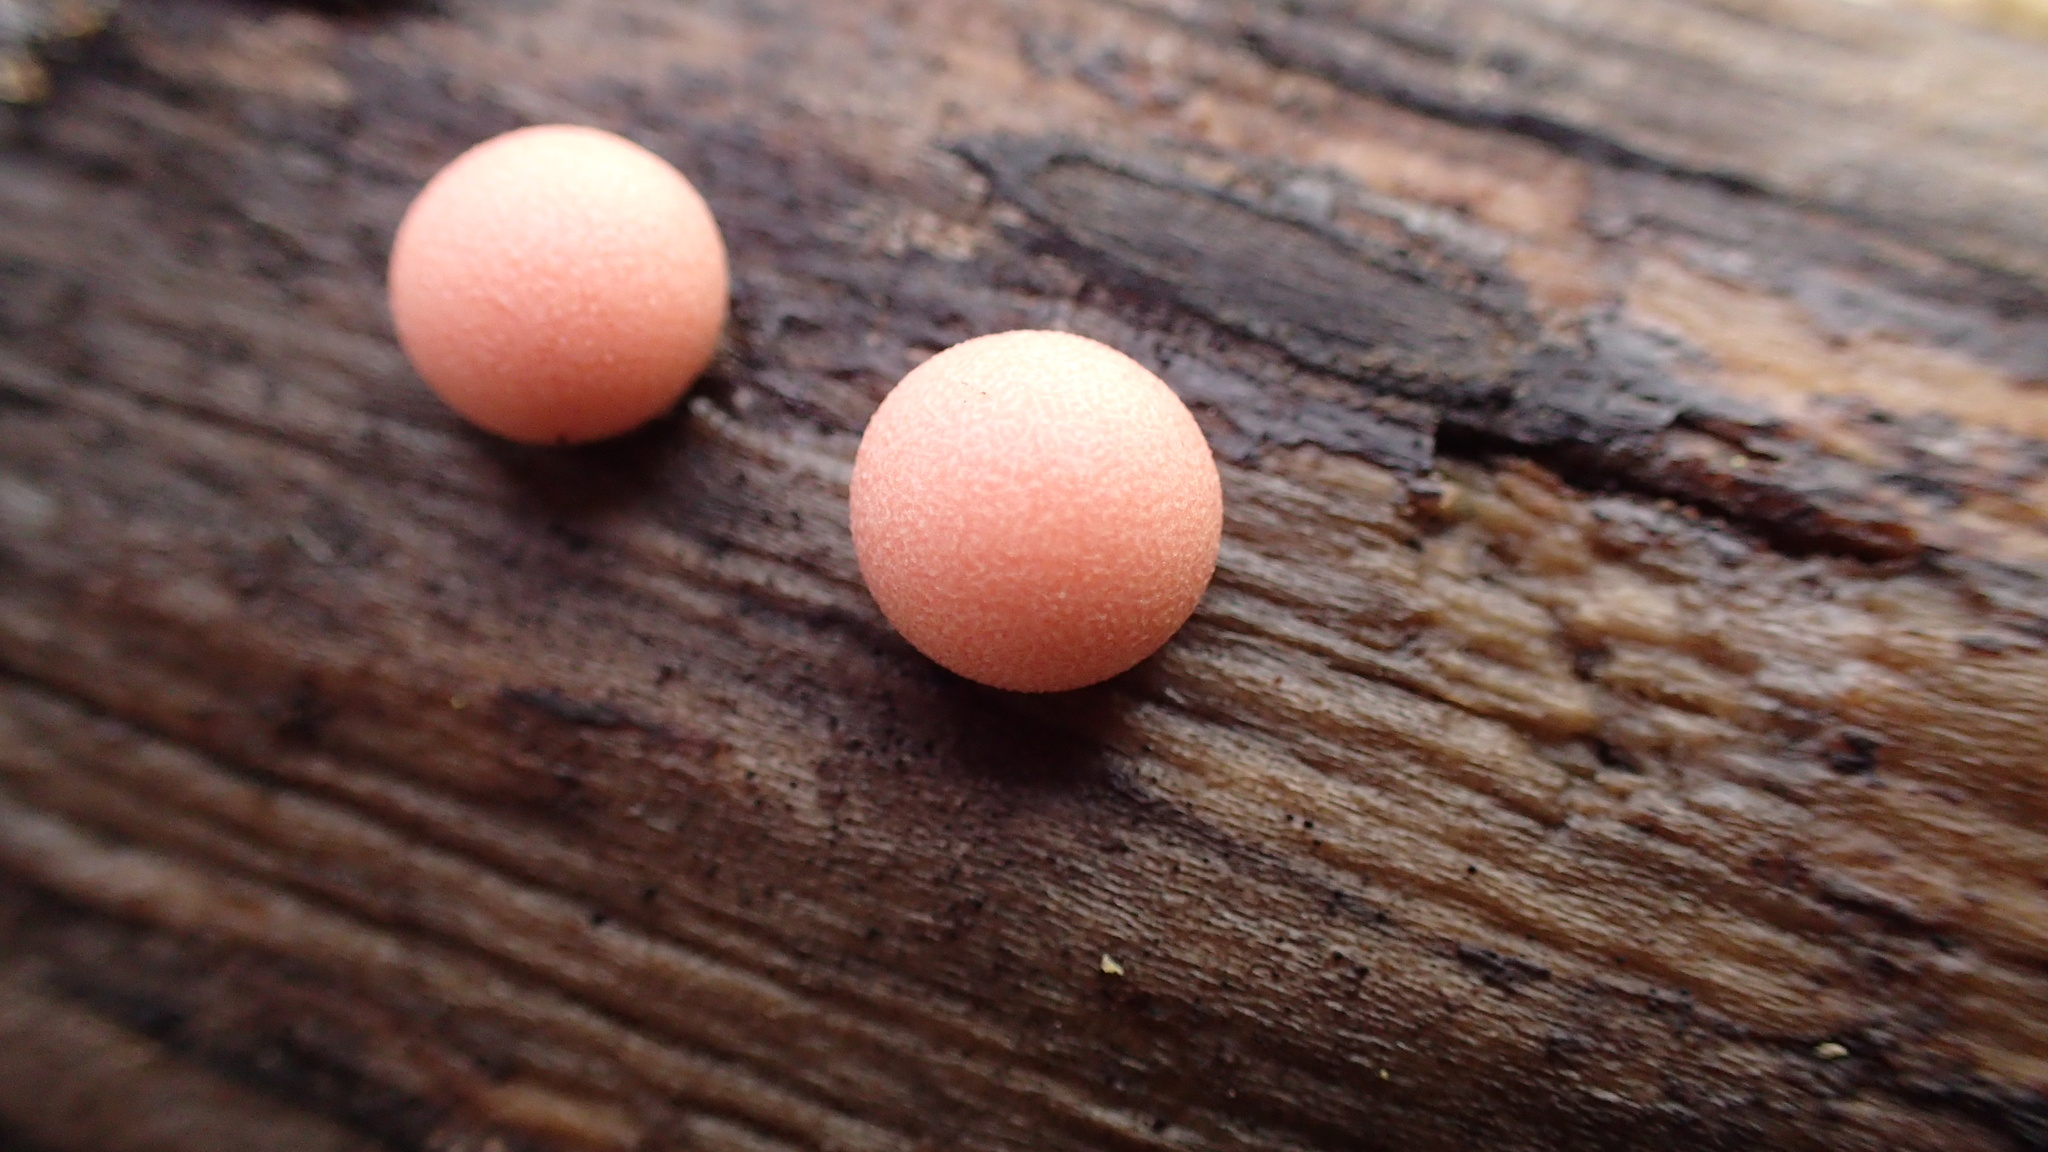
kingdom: Protozoa
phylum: Mycetozoa
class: Myxomycetes
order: Cribrariales
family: Tubiferaceae
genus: Lycogala
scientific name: Lycogala epidendrum
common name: Wolf's milk
